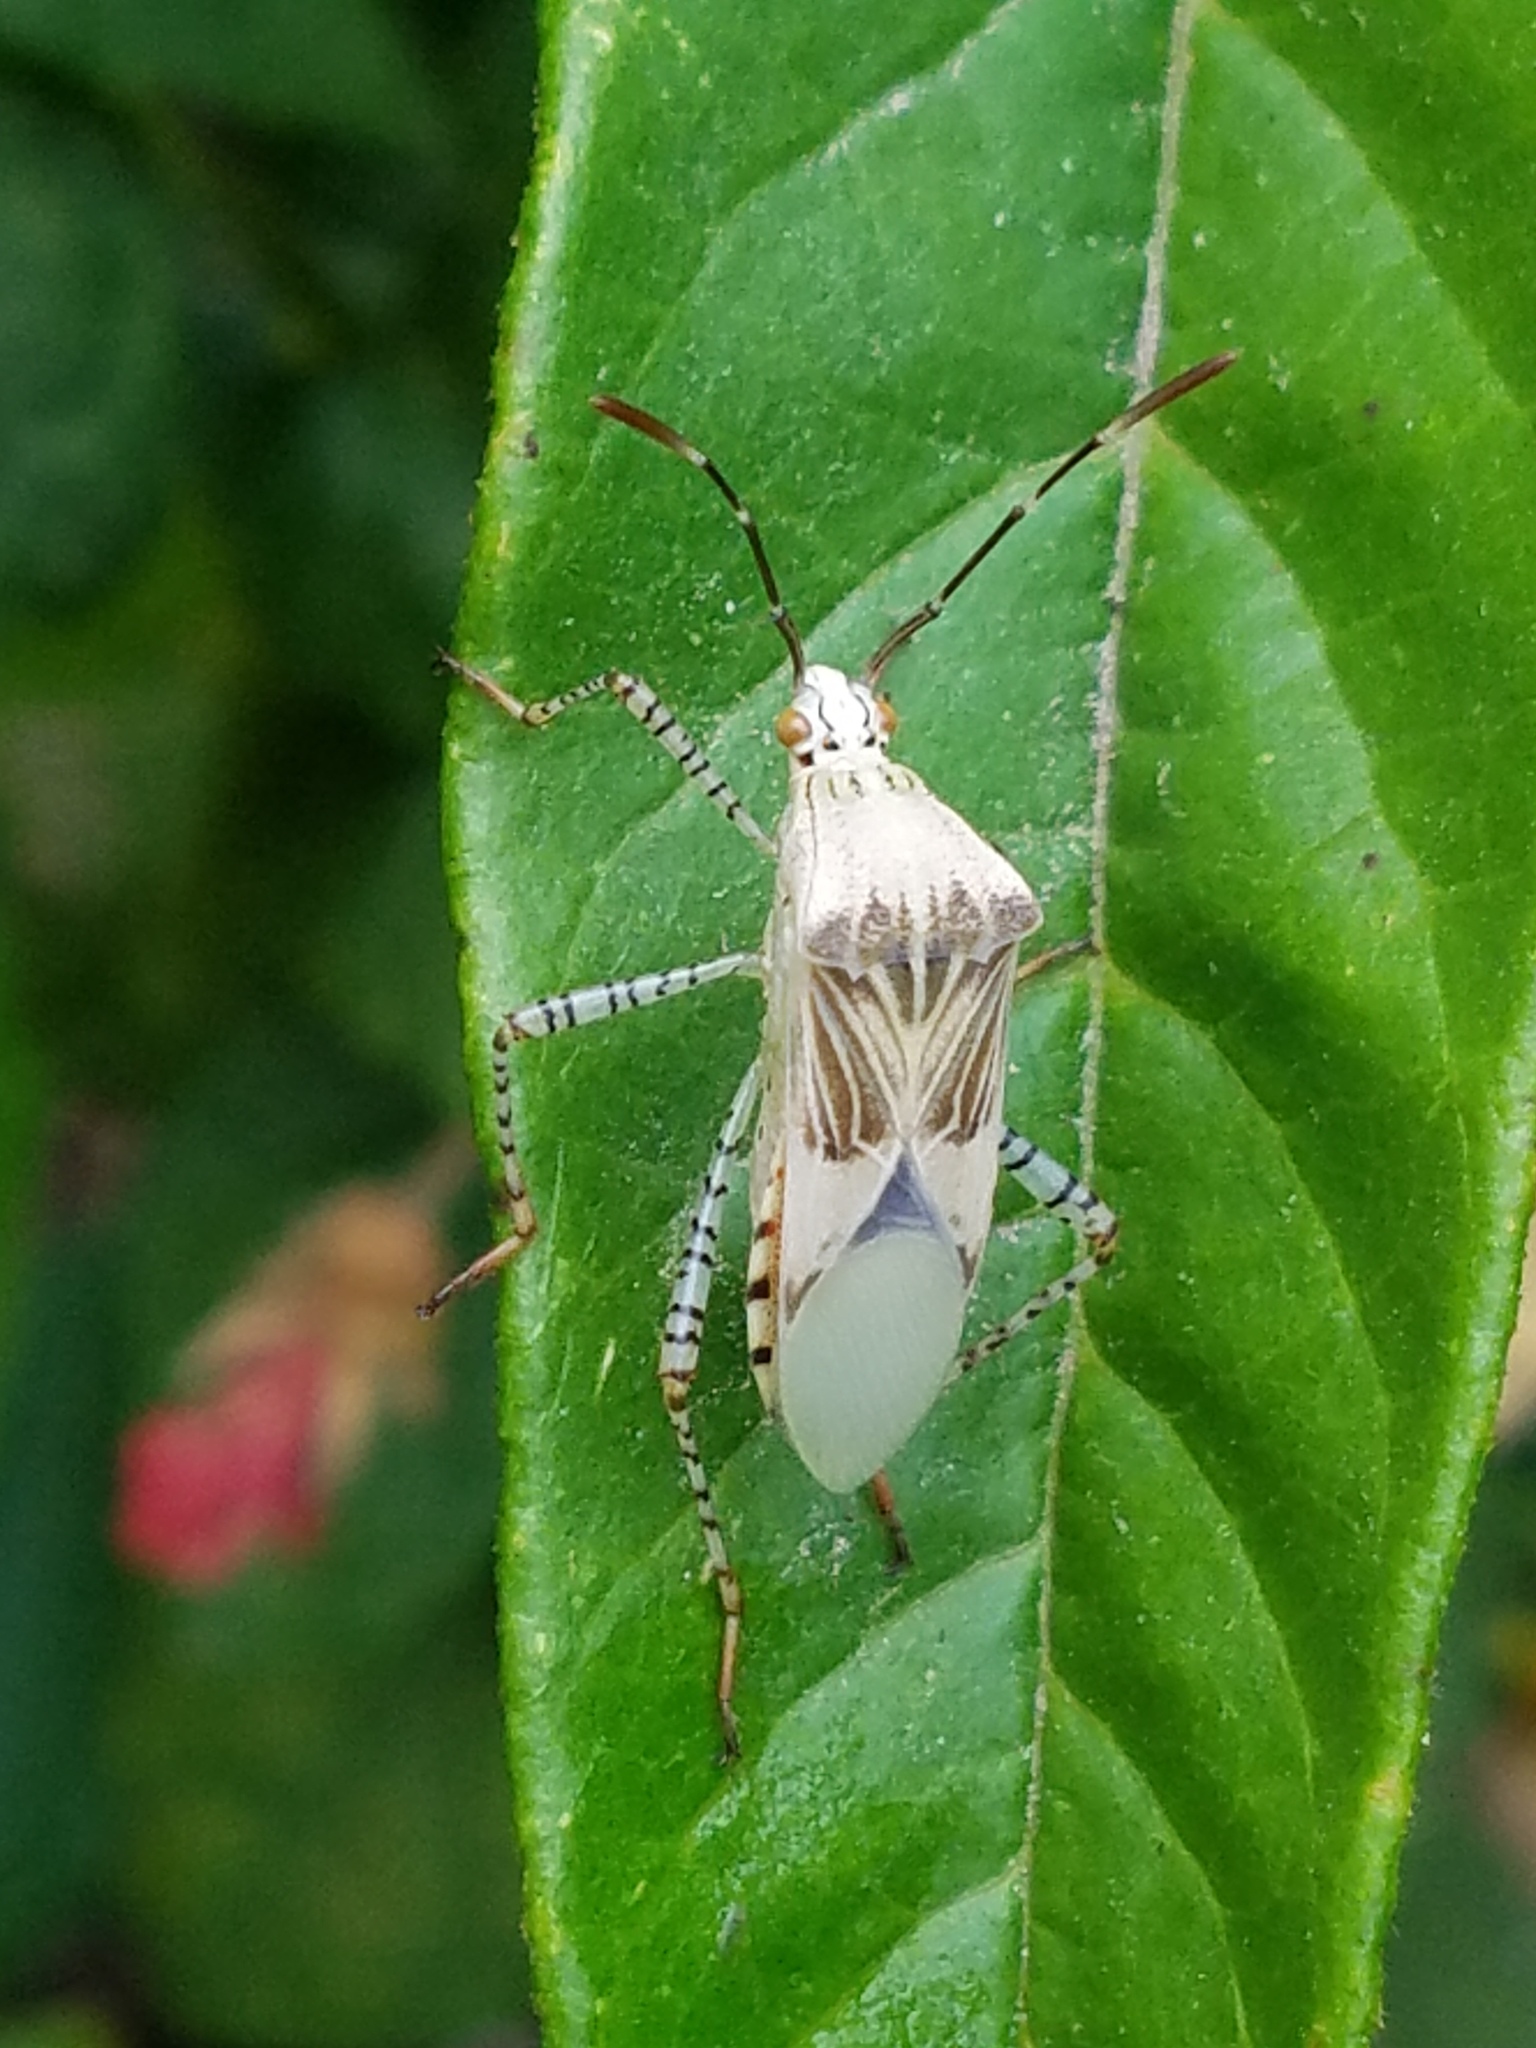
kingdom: Animalia
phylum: Arthropoda
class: Insecta
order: Hemiptera
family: Coreidae
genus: Hypselonotus
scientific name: Hypselonotus punctiventris
